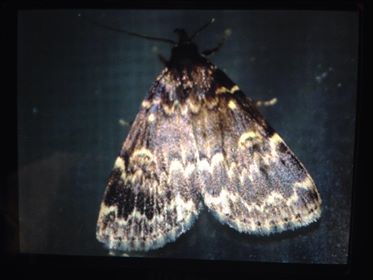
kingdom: Animalia
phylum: Arthropoda
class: Insecta
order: Lepidoptera
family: Erebidae
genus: Idia
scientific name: Idia lubricalis
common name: Twin-striped tabby
